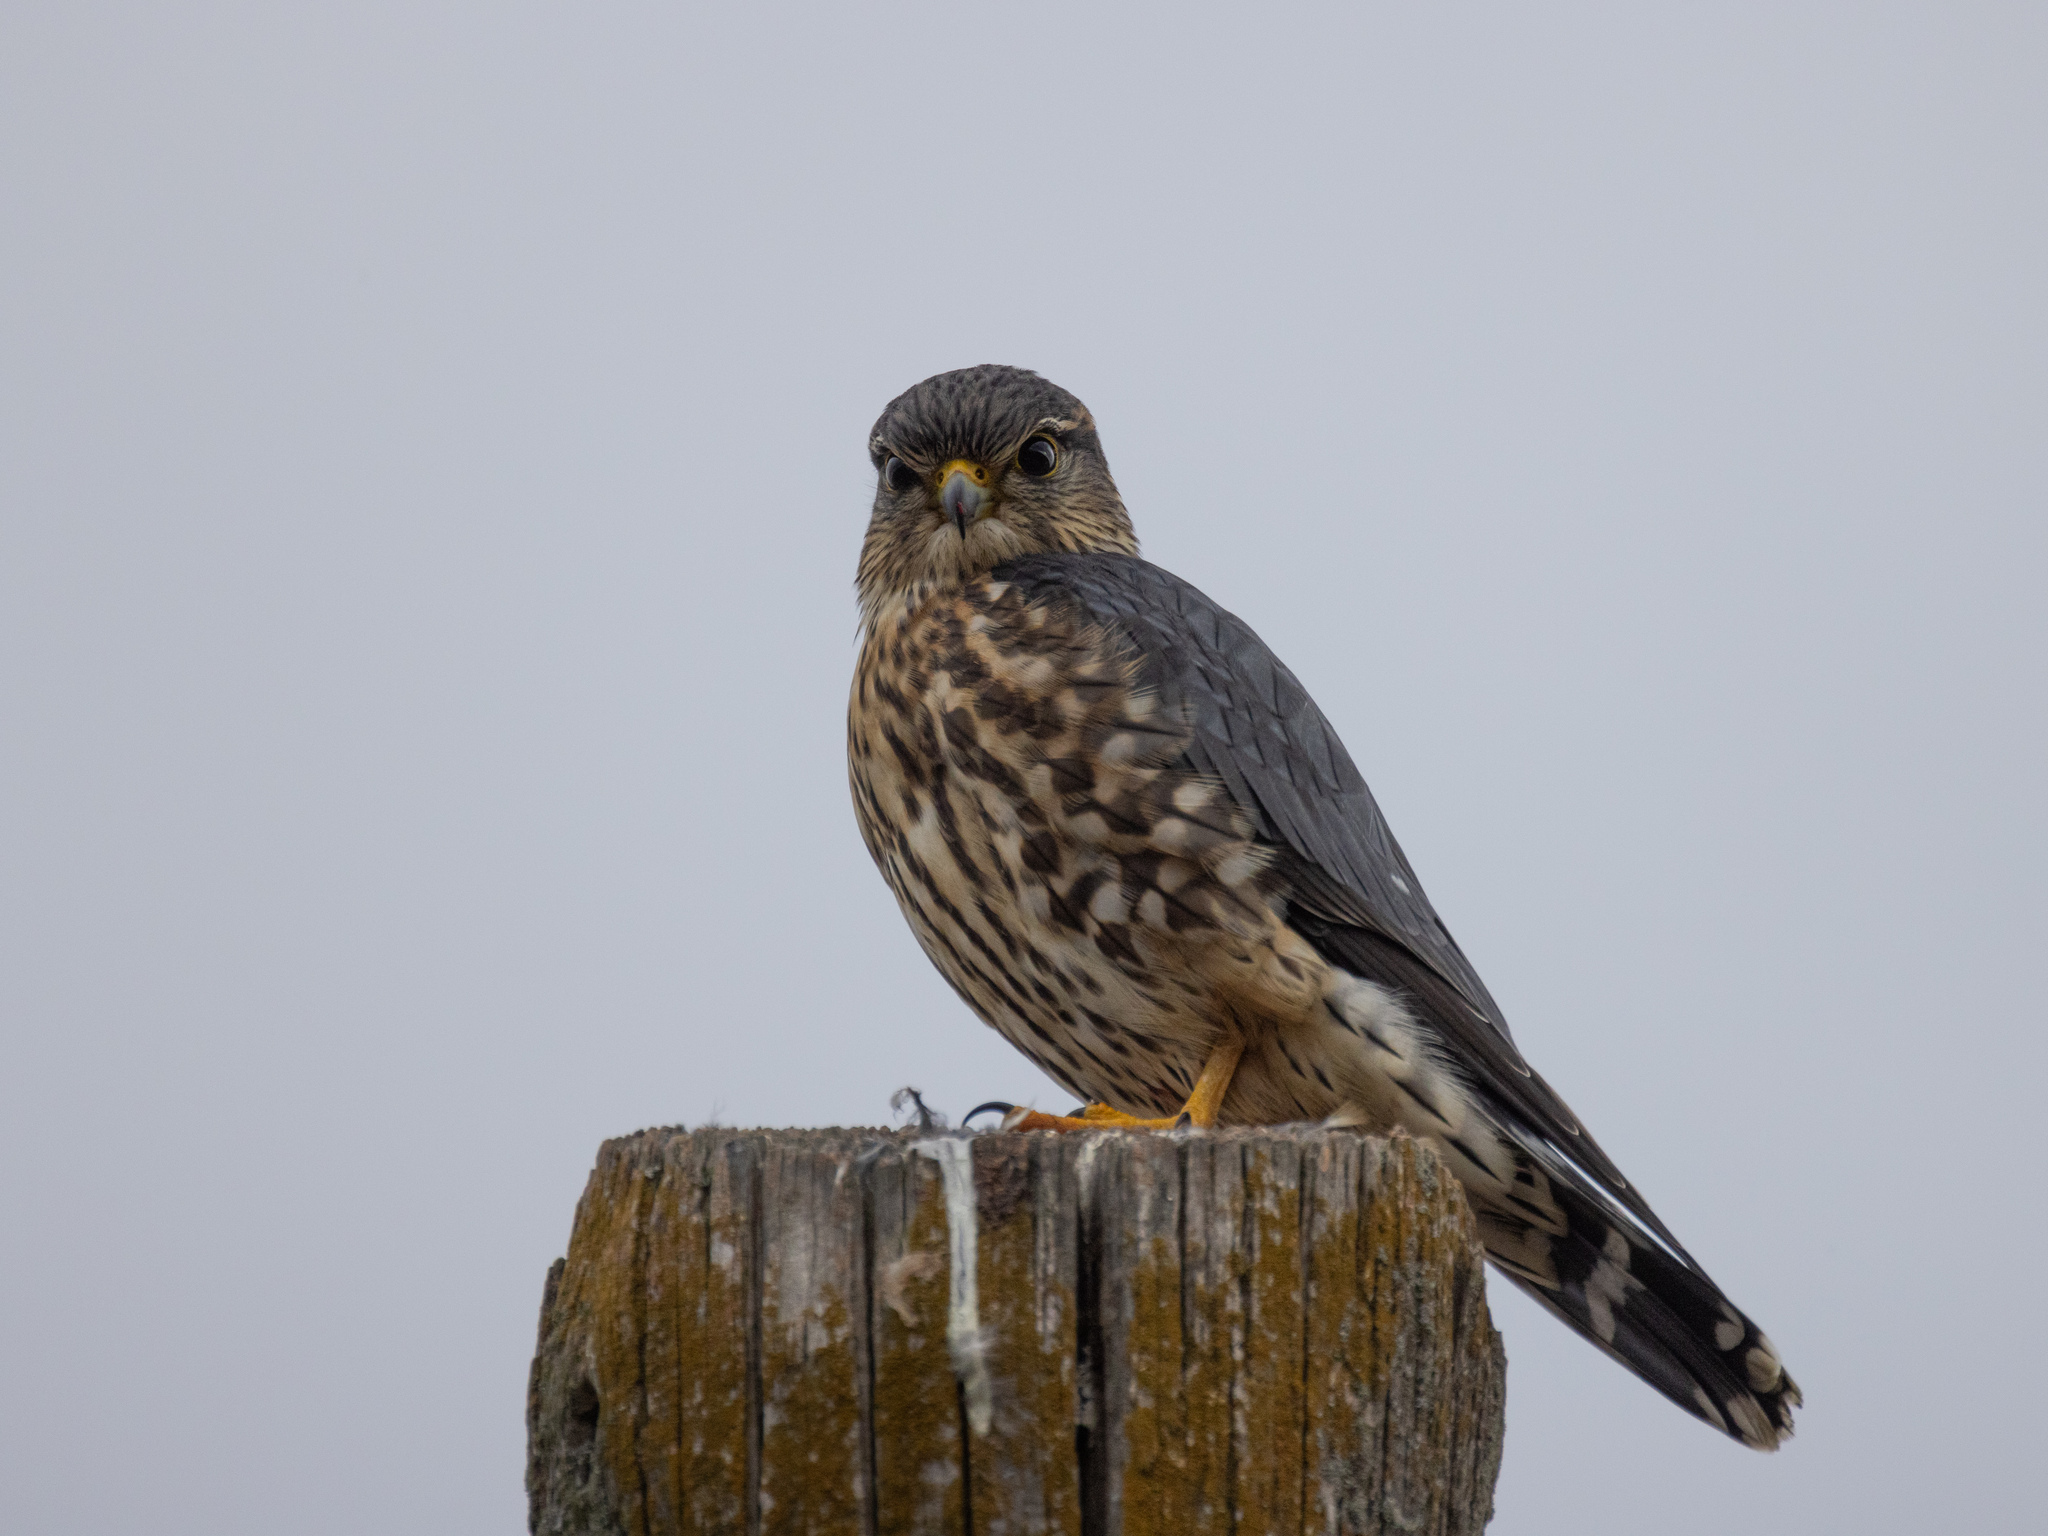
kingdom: Animalia
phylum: Chordata
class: Aves
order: Falconiformes
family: Falconidae
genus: Falco
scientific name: Falco columbarius
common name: Merlin
